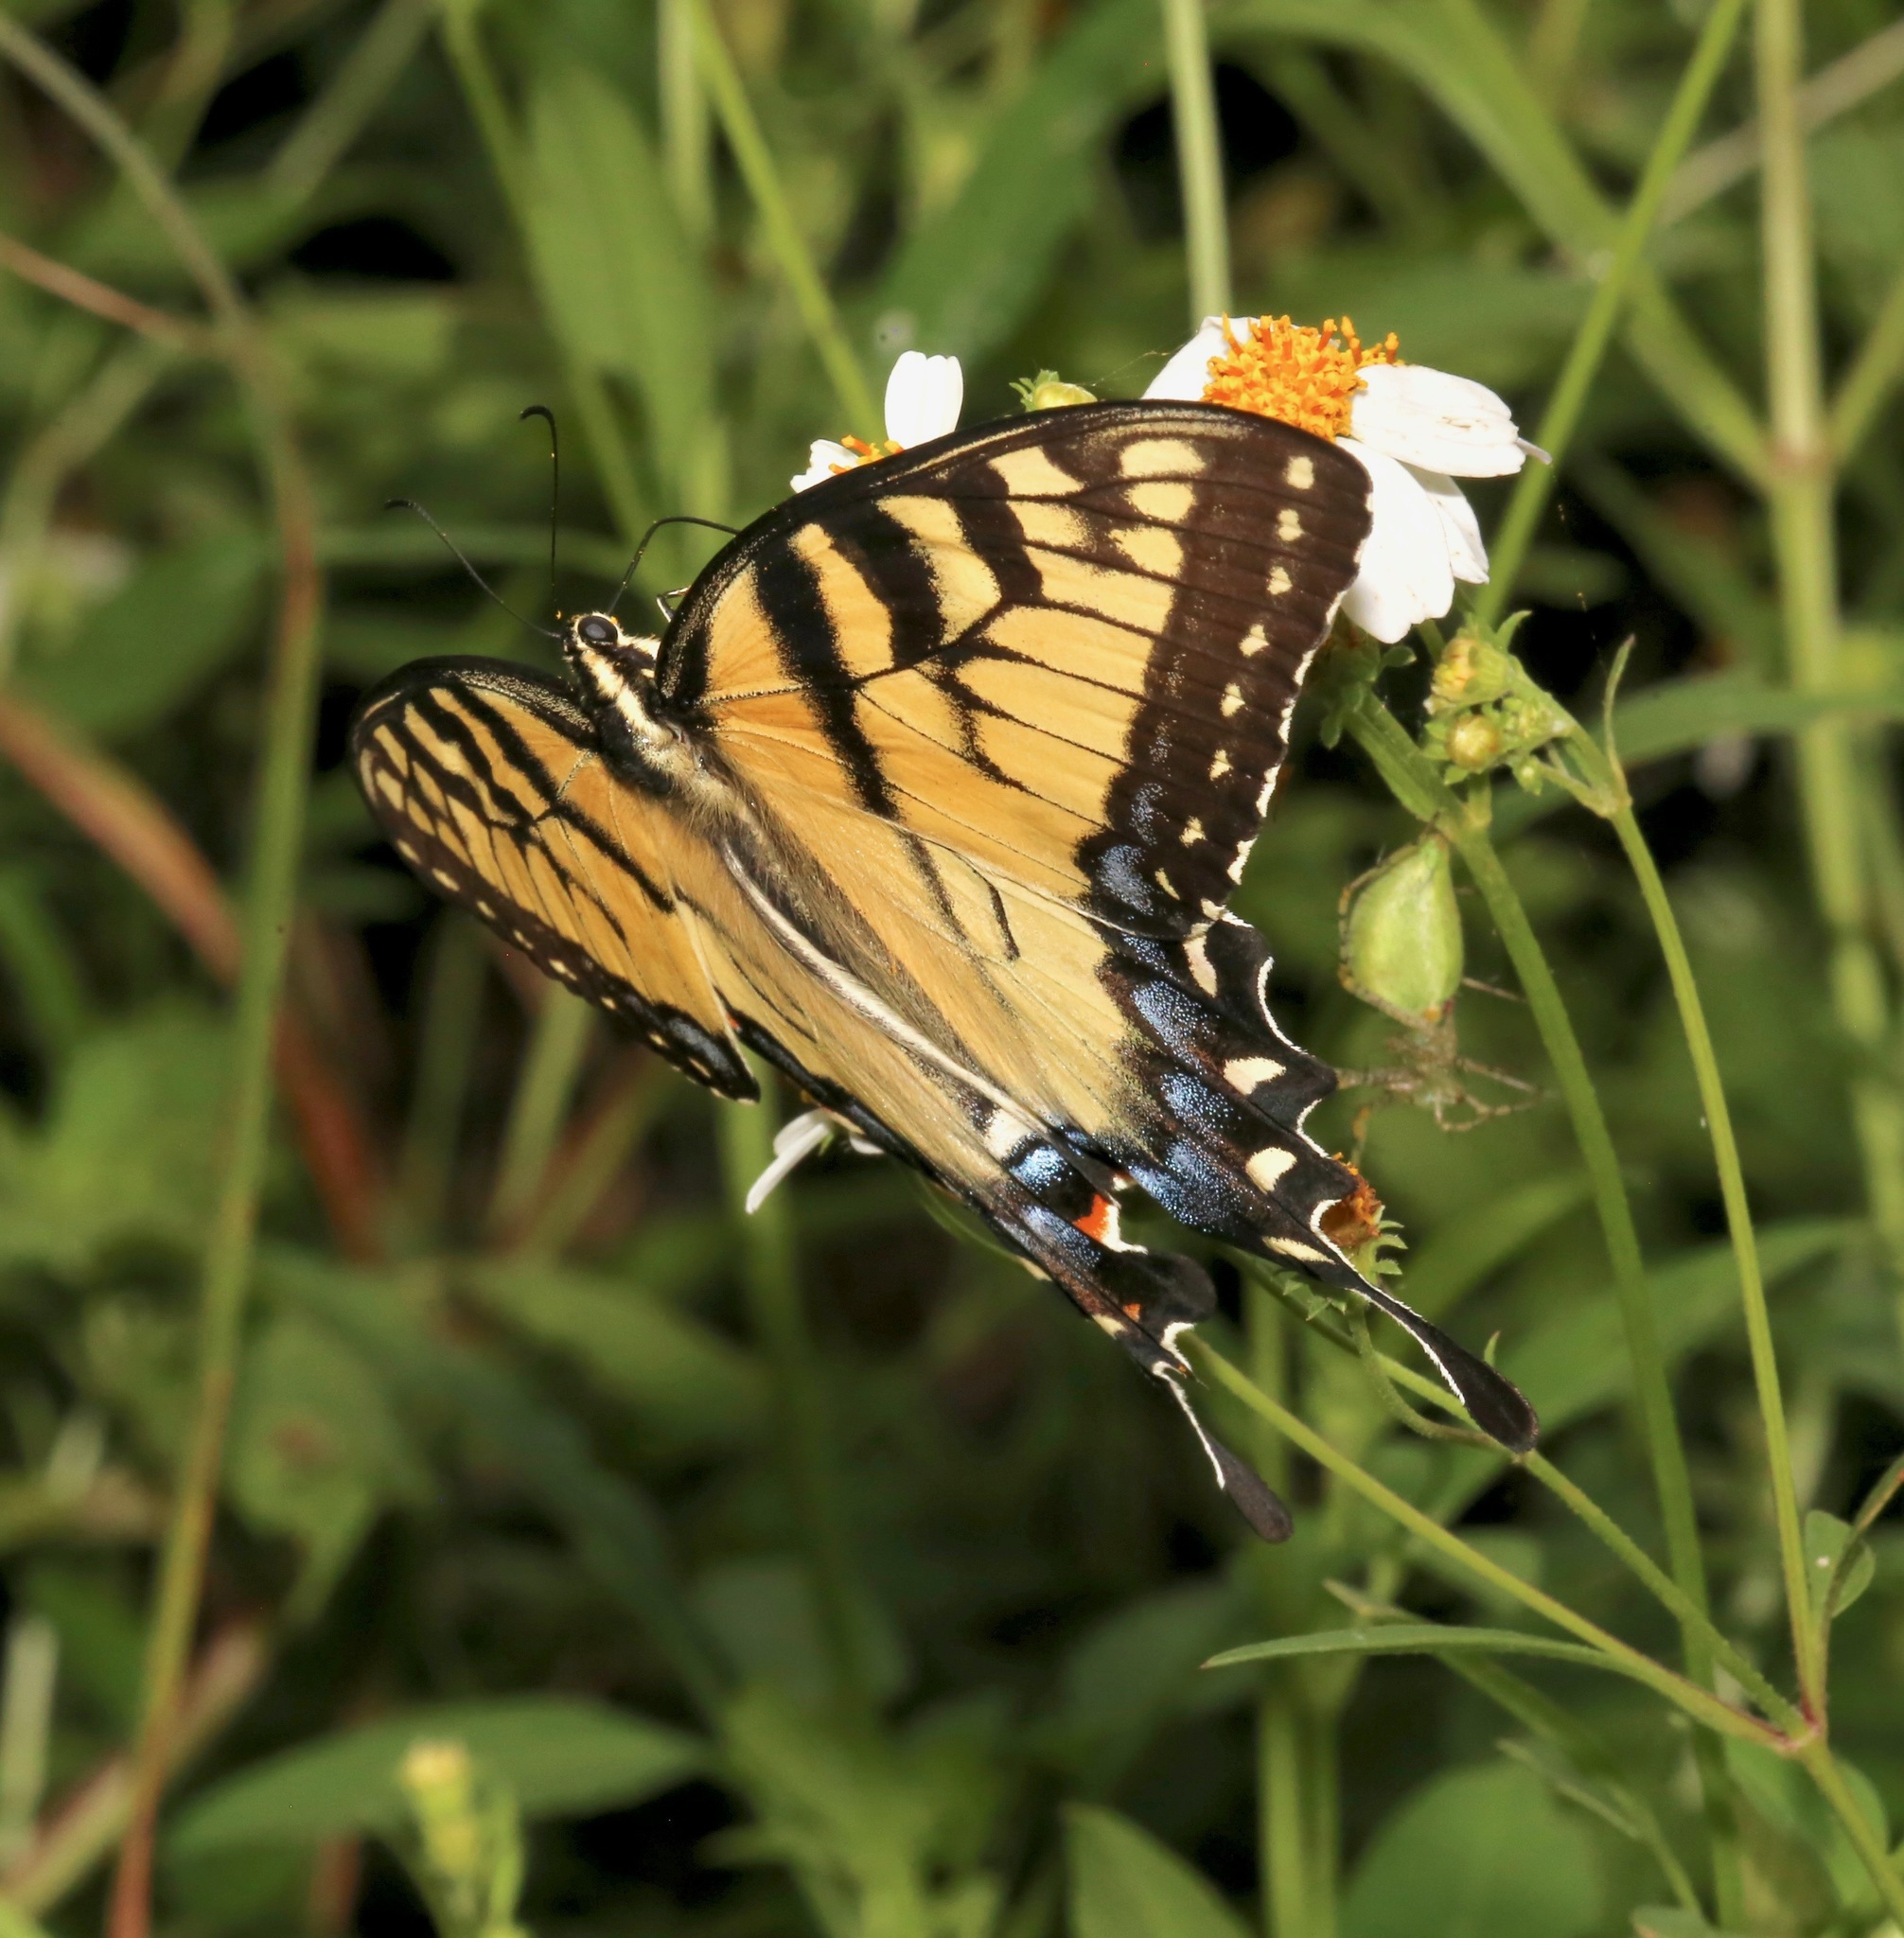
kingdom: Animalia
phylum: Arthropoda
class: Insecta
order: Lepidoptera
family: Papilionidae
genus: Papilio
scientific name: Papilio glaucus
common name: Tiger swallowtail
